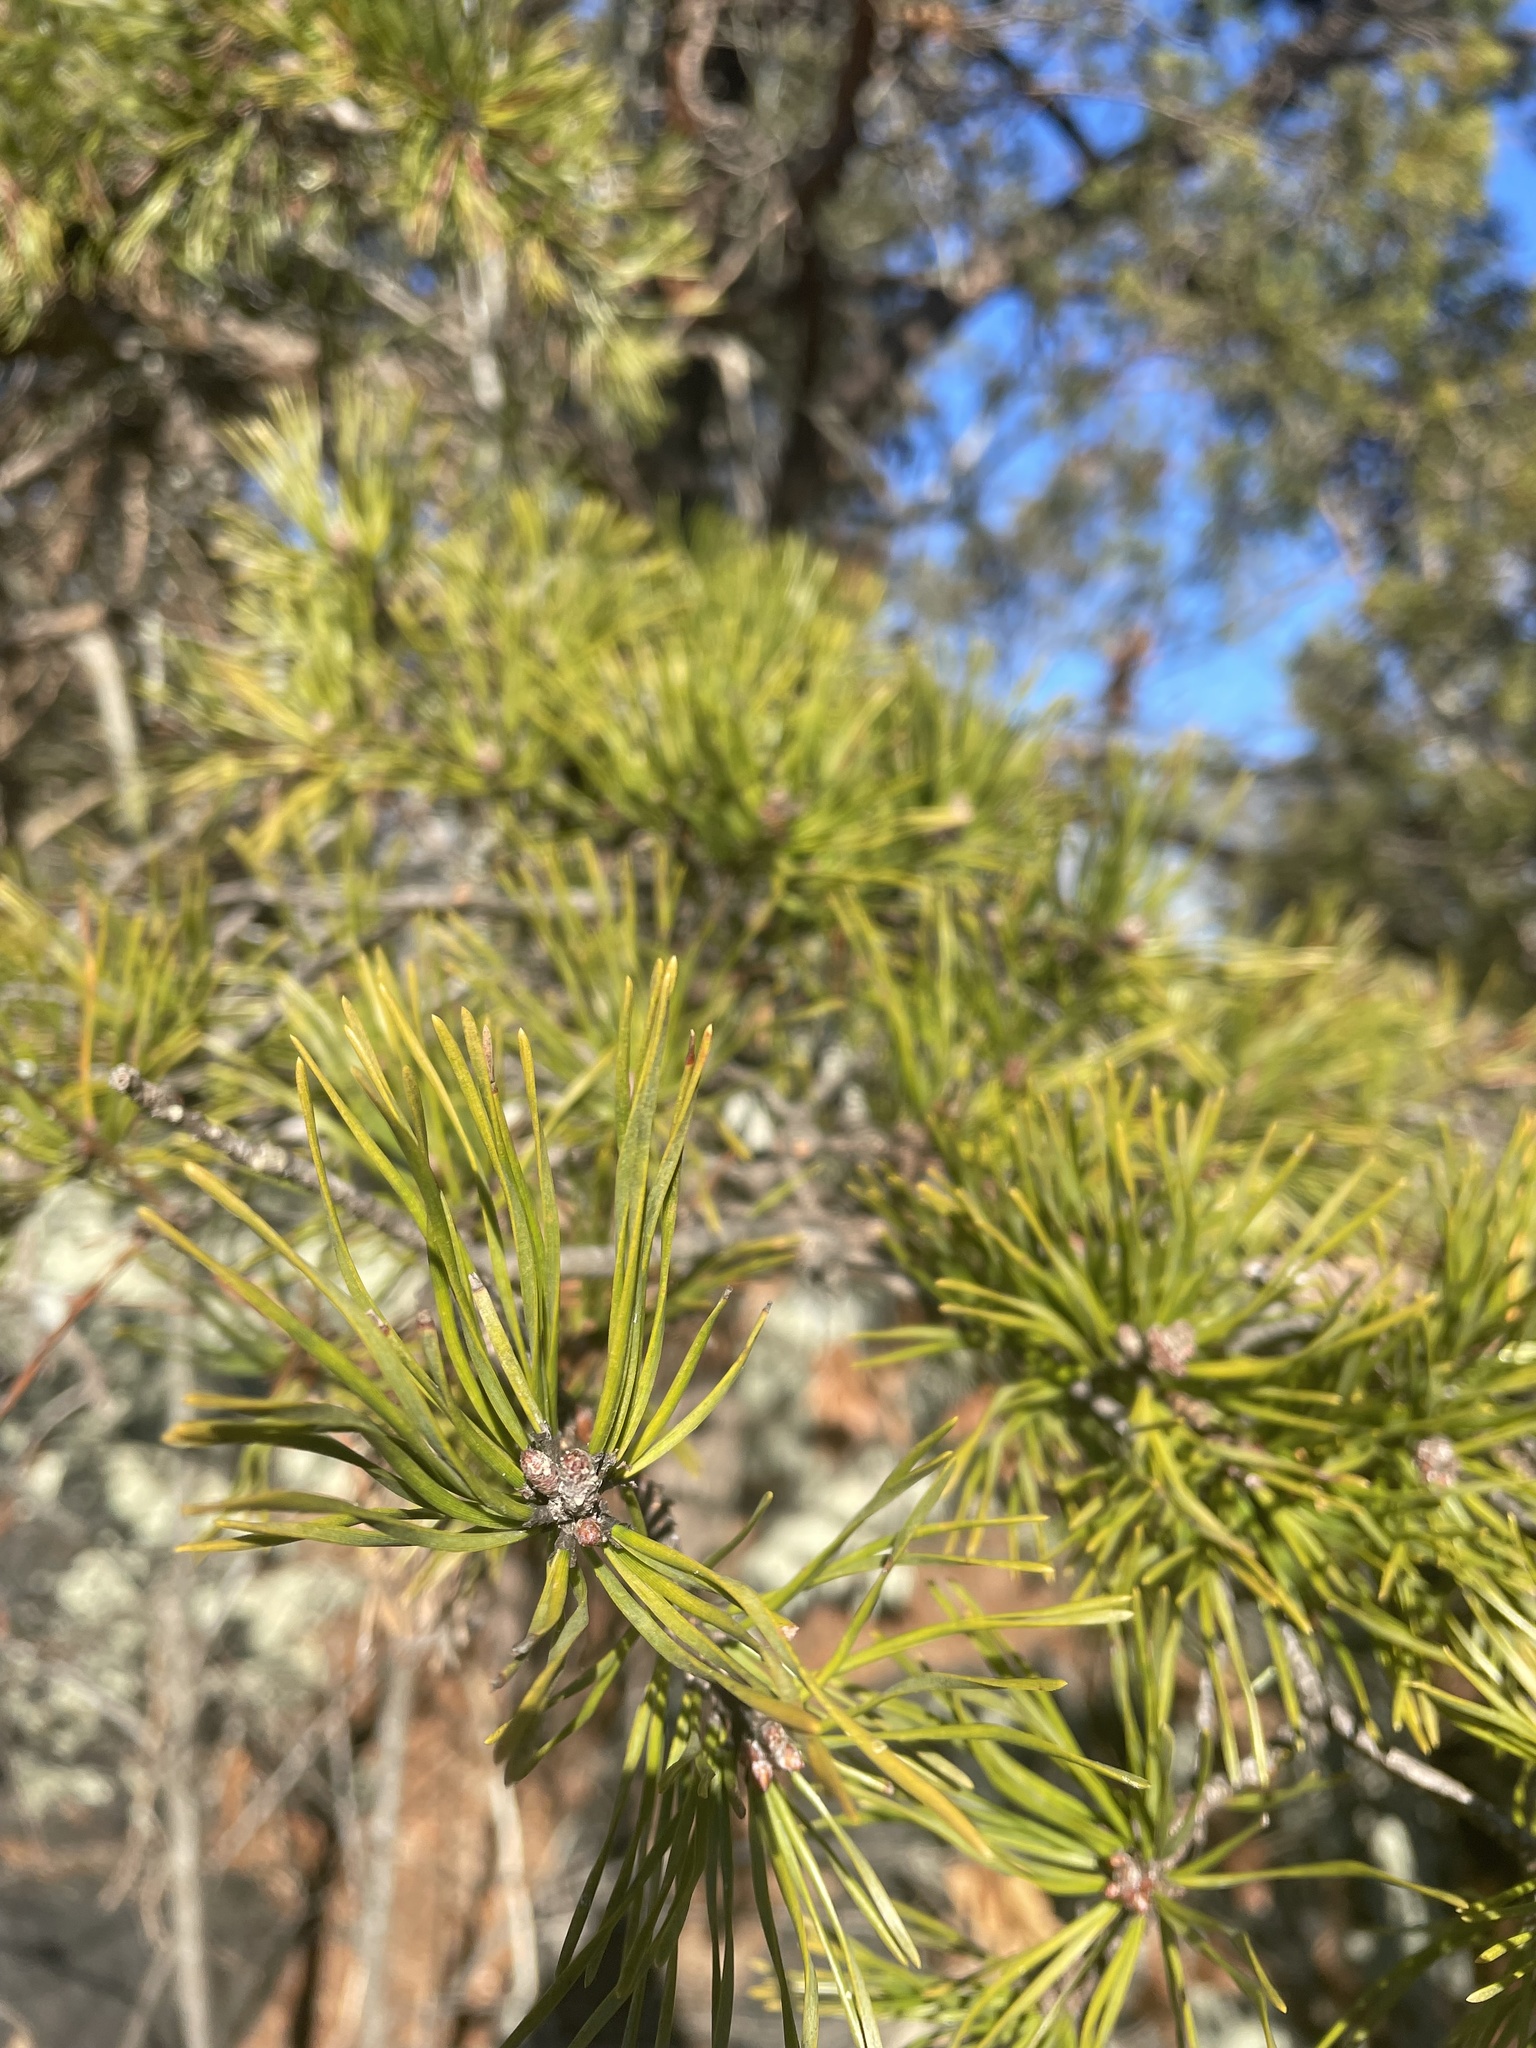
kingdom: Plantae
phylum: Tracheophyta
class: Pinopsida
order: Pinales
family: Pinaceae
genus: Pinus
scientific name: Pinus virginiana
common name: Scrub pine
